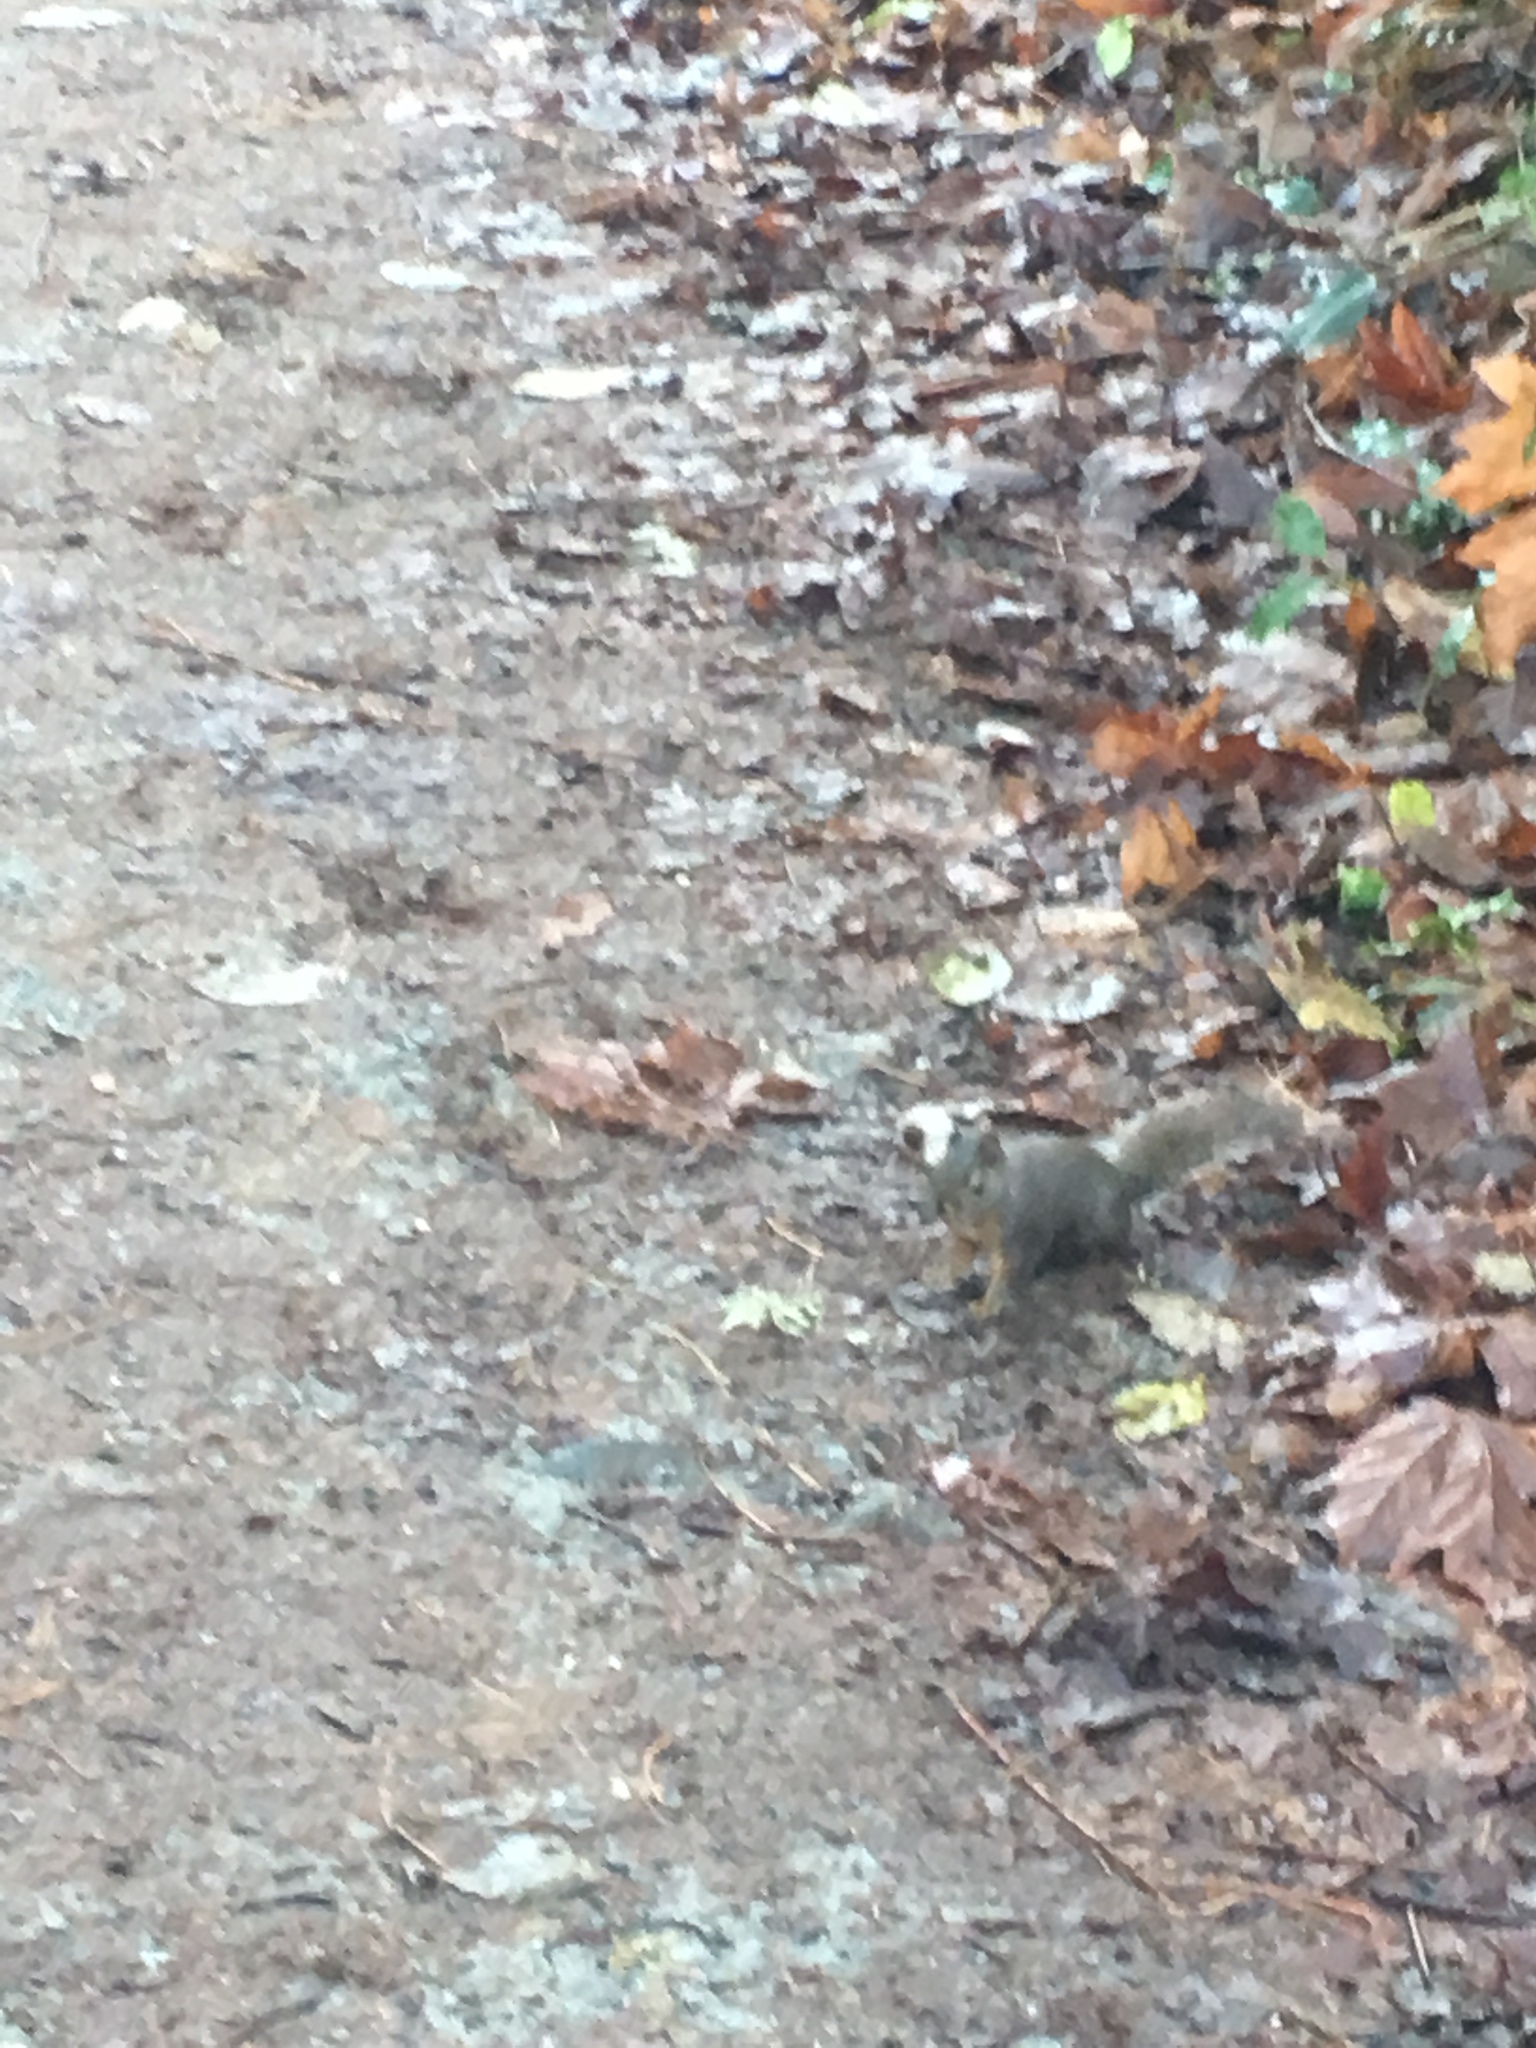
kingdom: Animalia
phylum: Chordata
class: Mammalia
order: Rodentia
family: Sciuridae
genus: Tamiasciurus
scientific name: Tamiasciurus douglasii
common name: Douglas's squirrel
